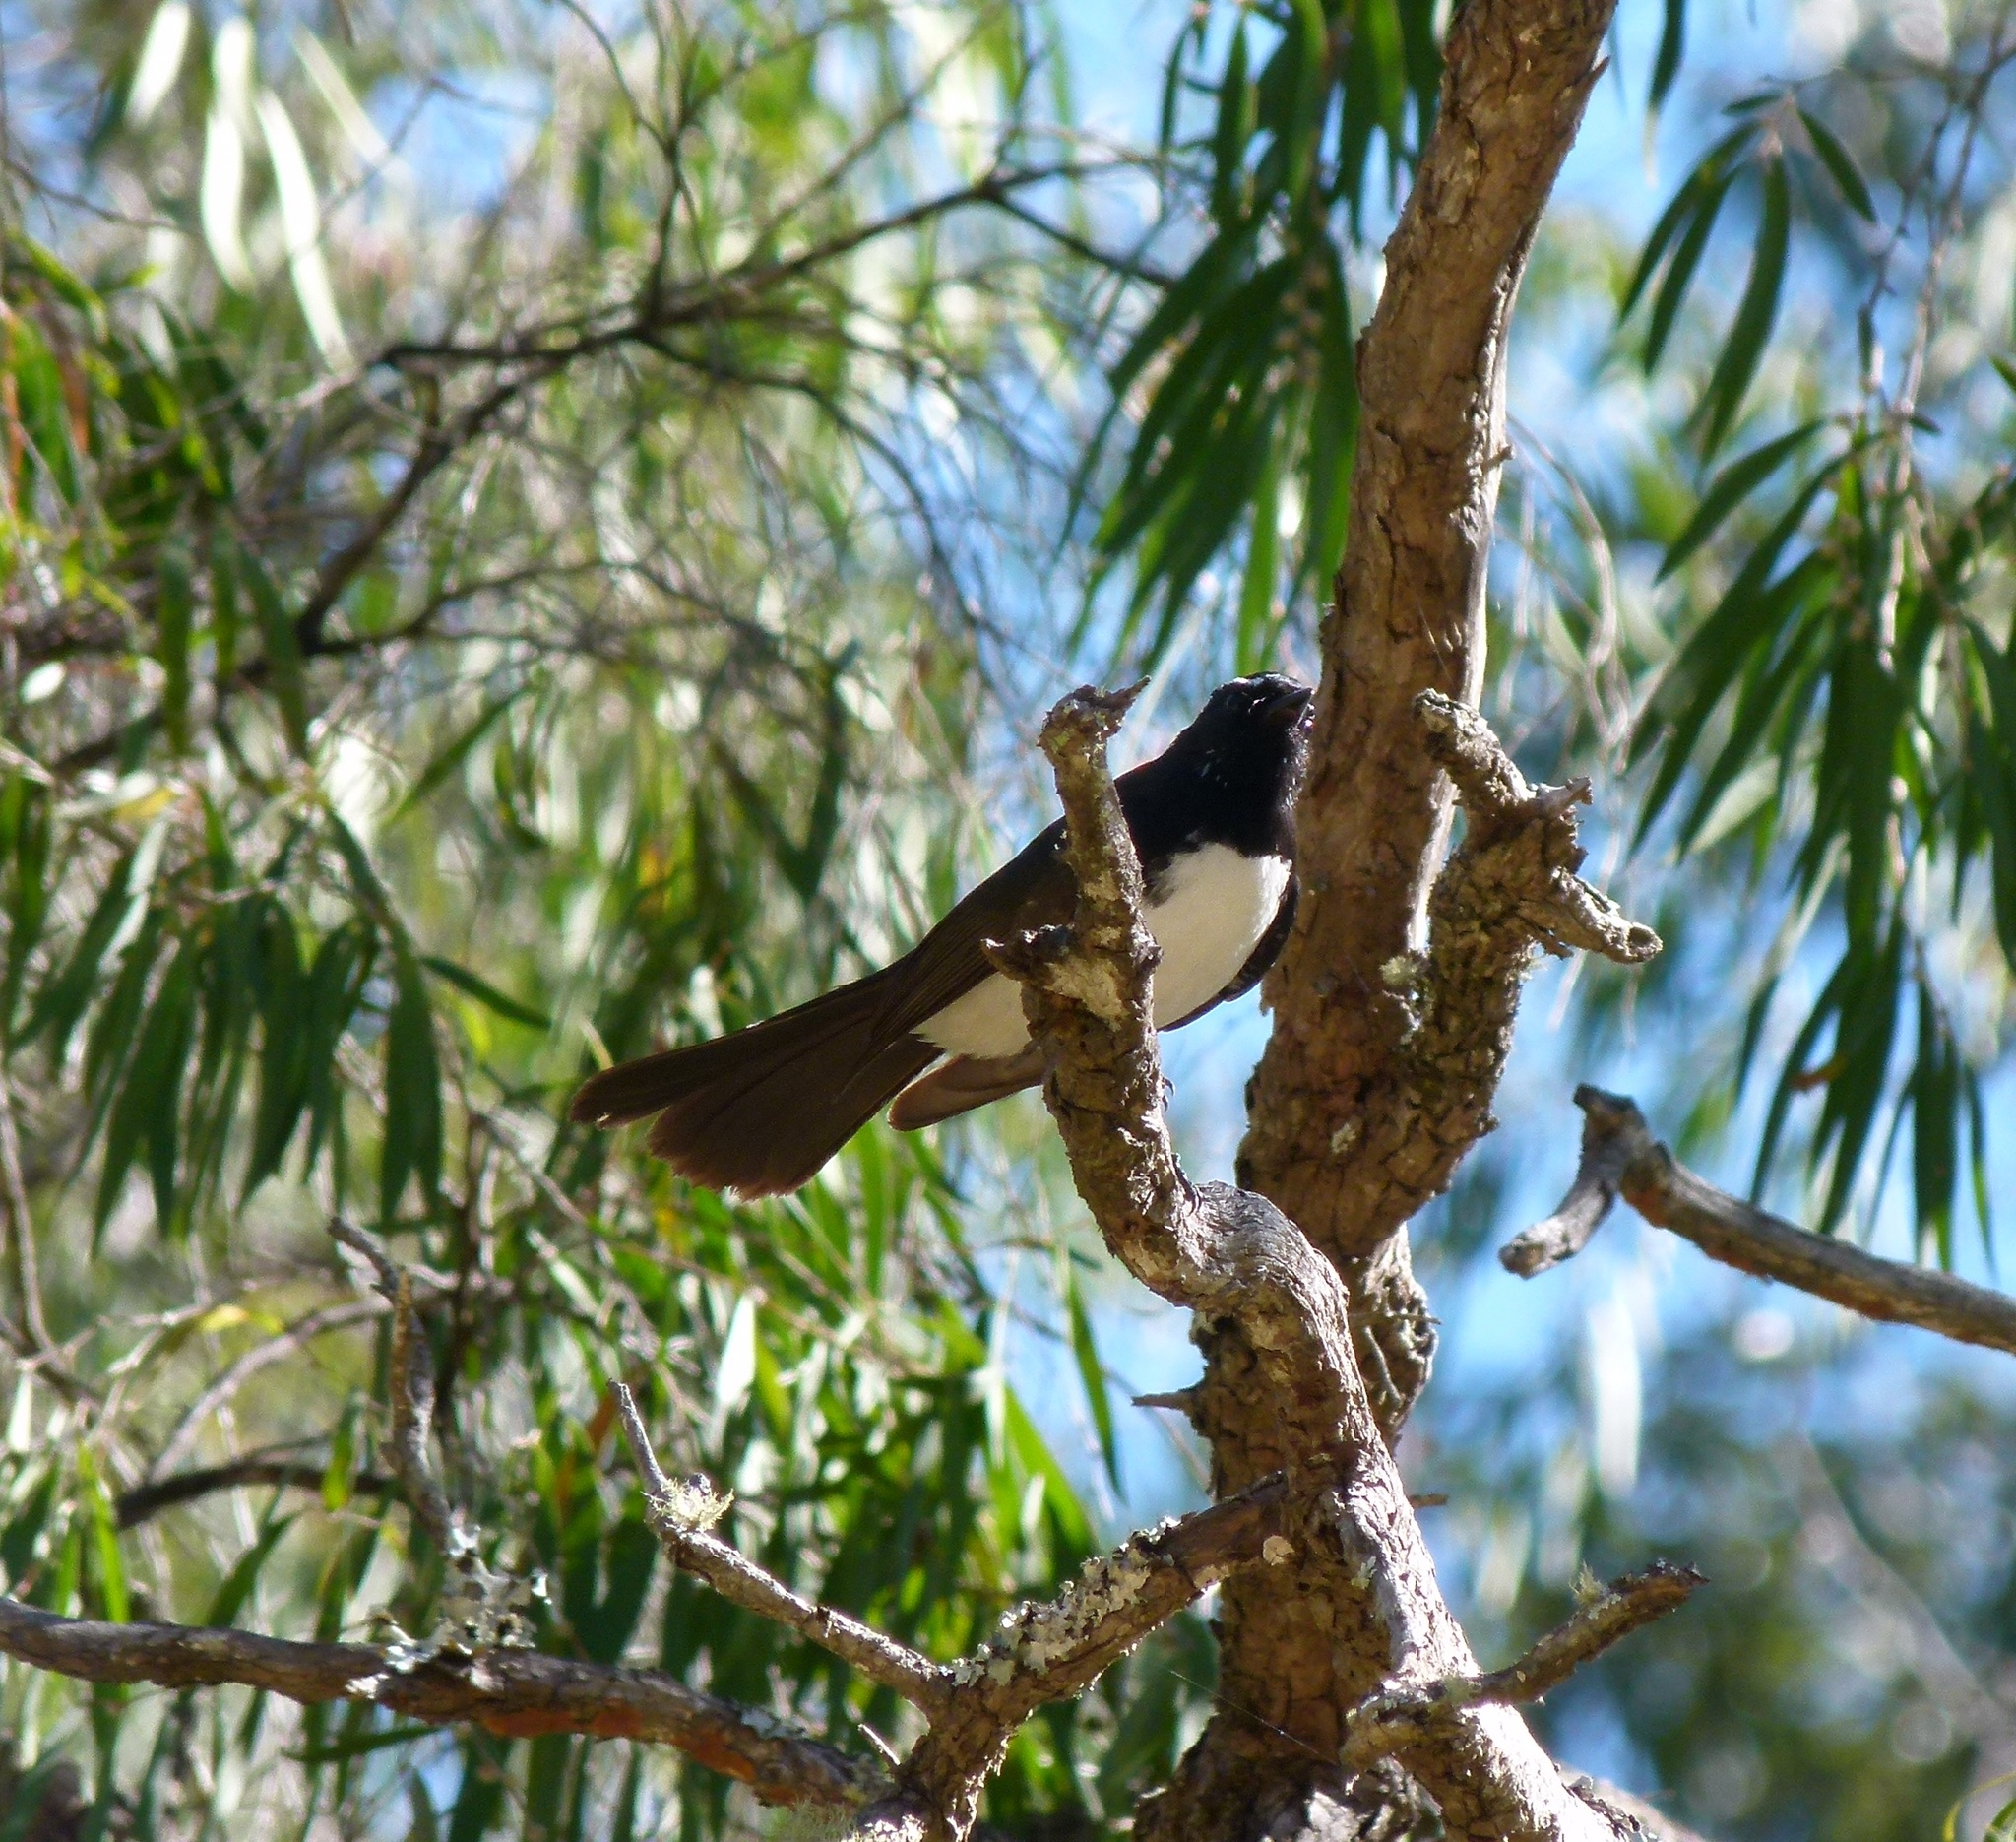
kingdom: Animalia
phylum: Chordata
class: Aves
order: Passeriformes
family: Rhipiduridae
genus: Rhipidura
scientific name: Rhipidura leucophrys
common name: Willie wagtail
